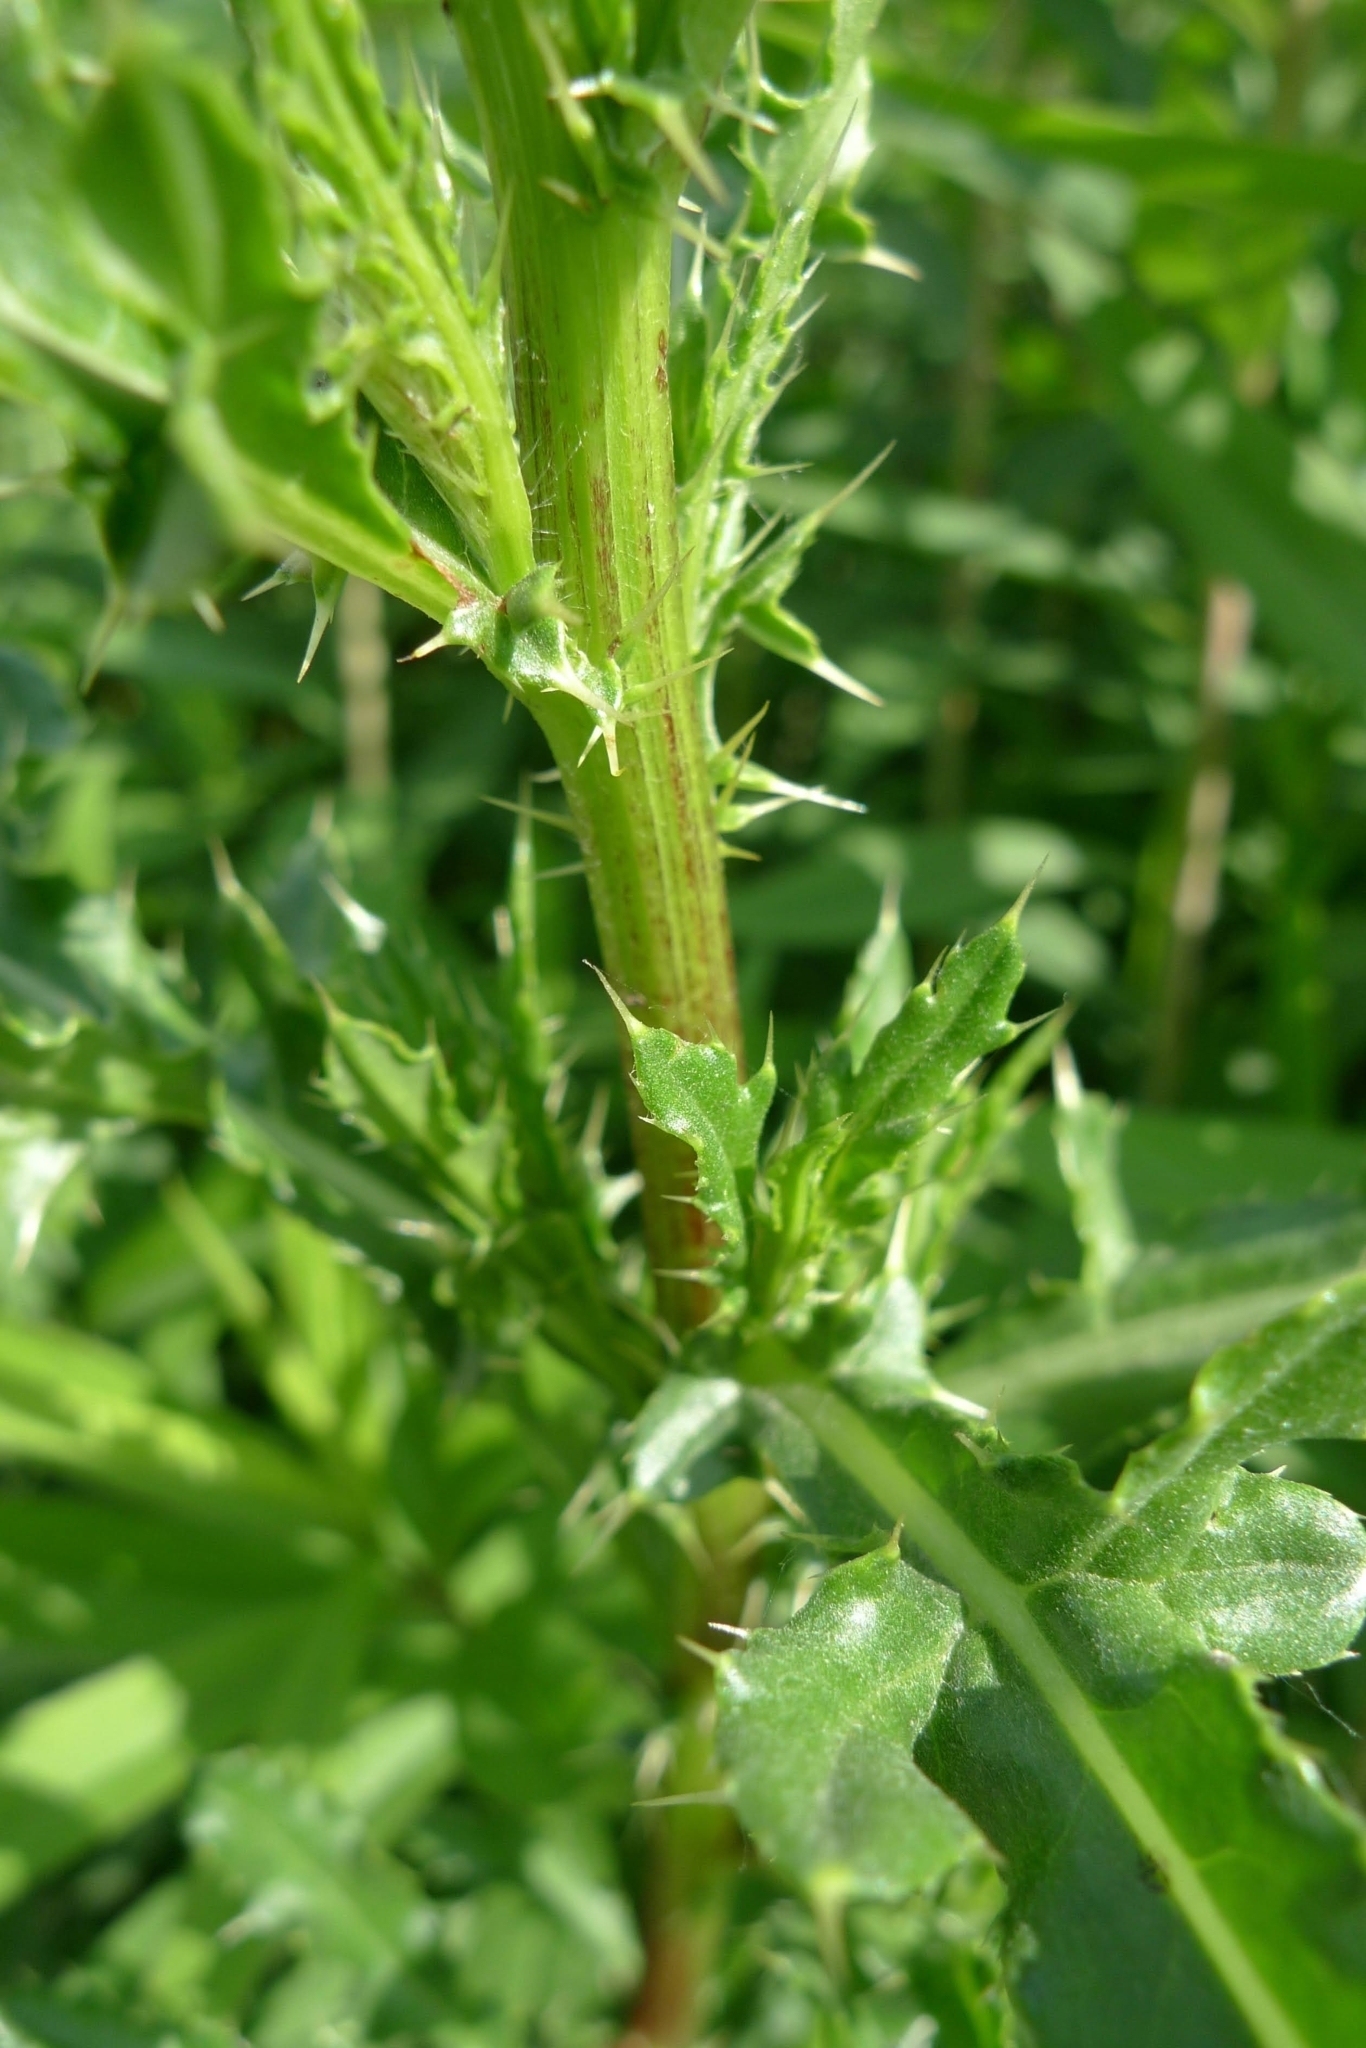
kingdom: Plantae
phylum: Tracheophyta
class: Magnoliopsida
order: Asterales
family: Asteraceae
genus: Cirsium
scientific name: Cirsium arvense
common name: Creeping thistle
